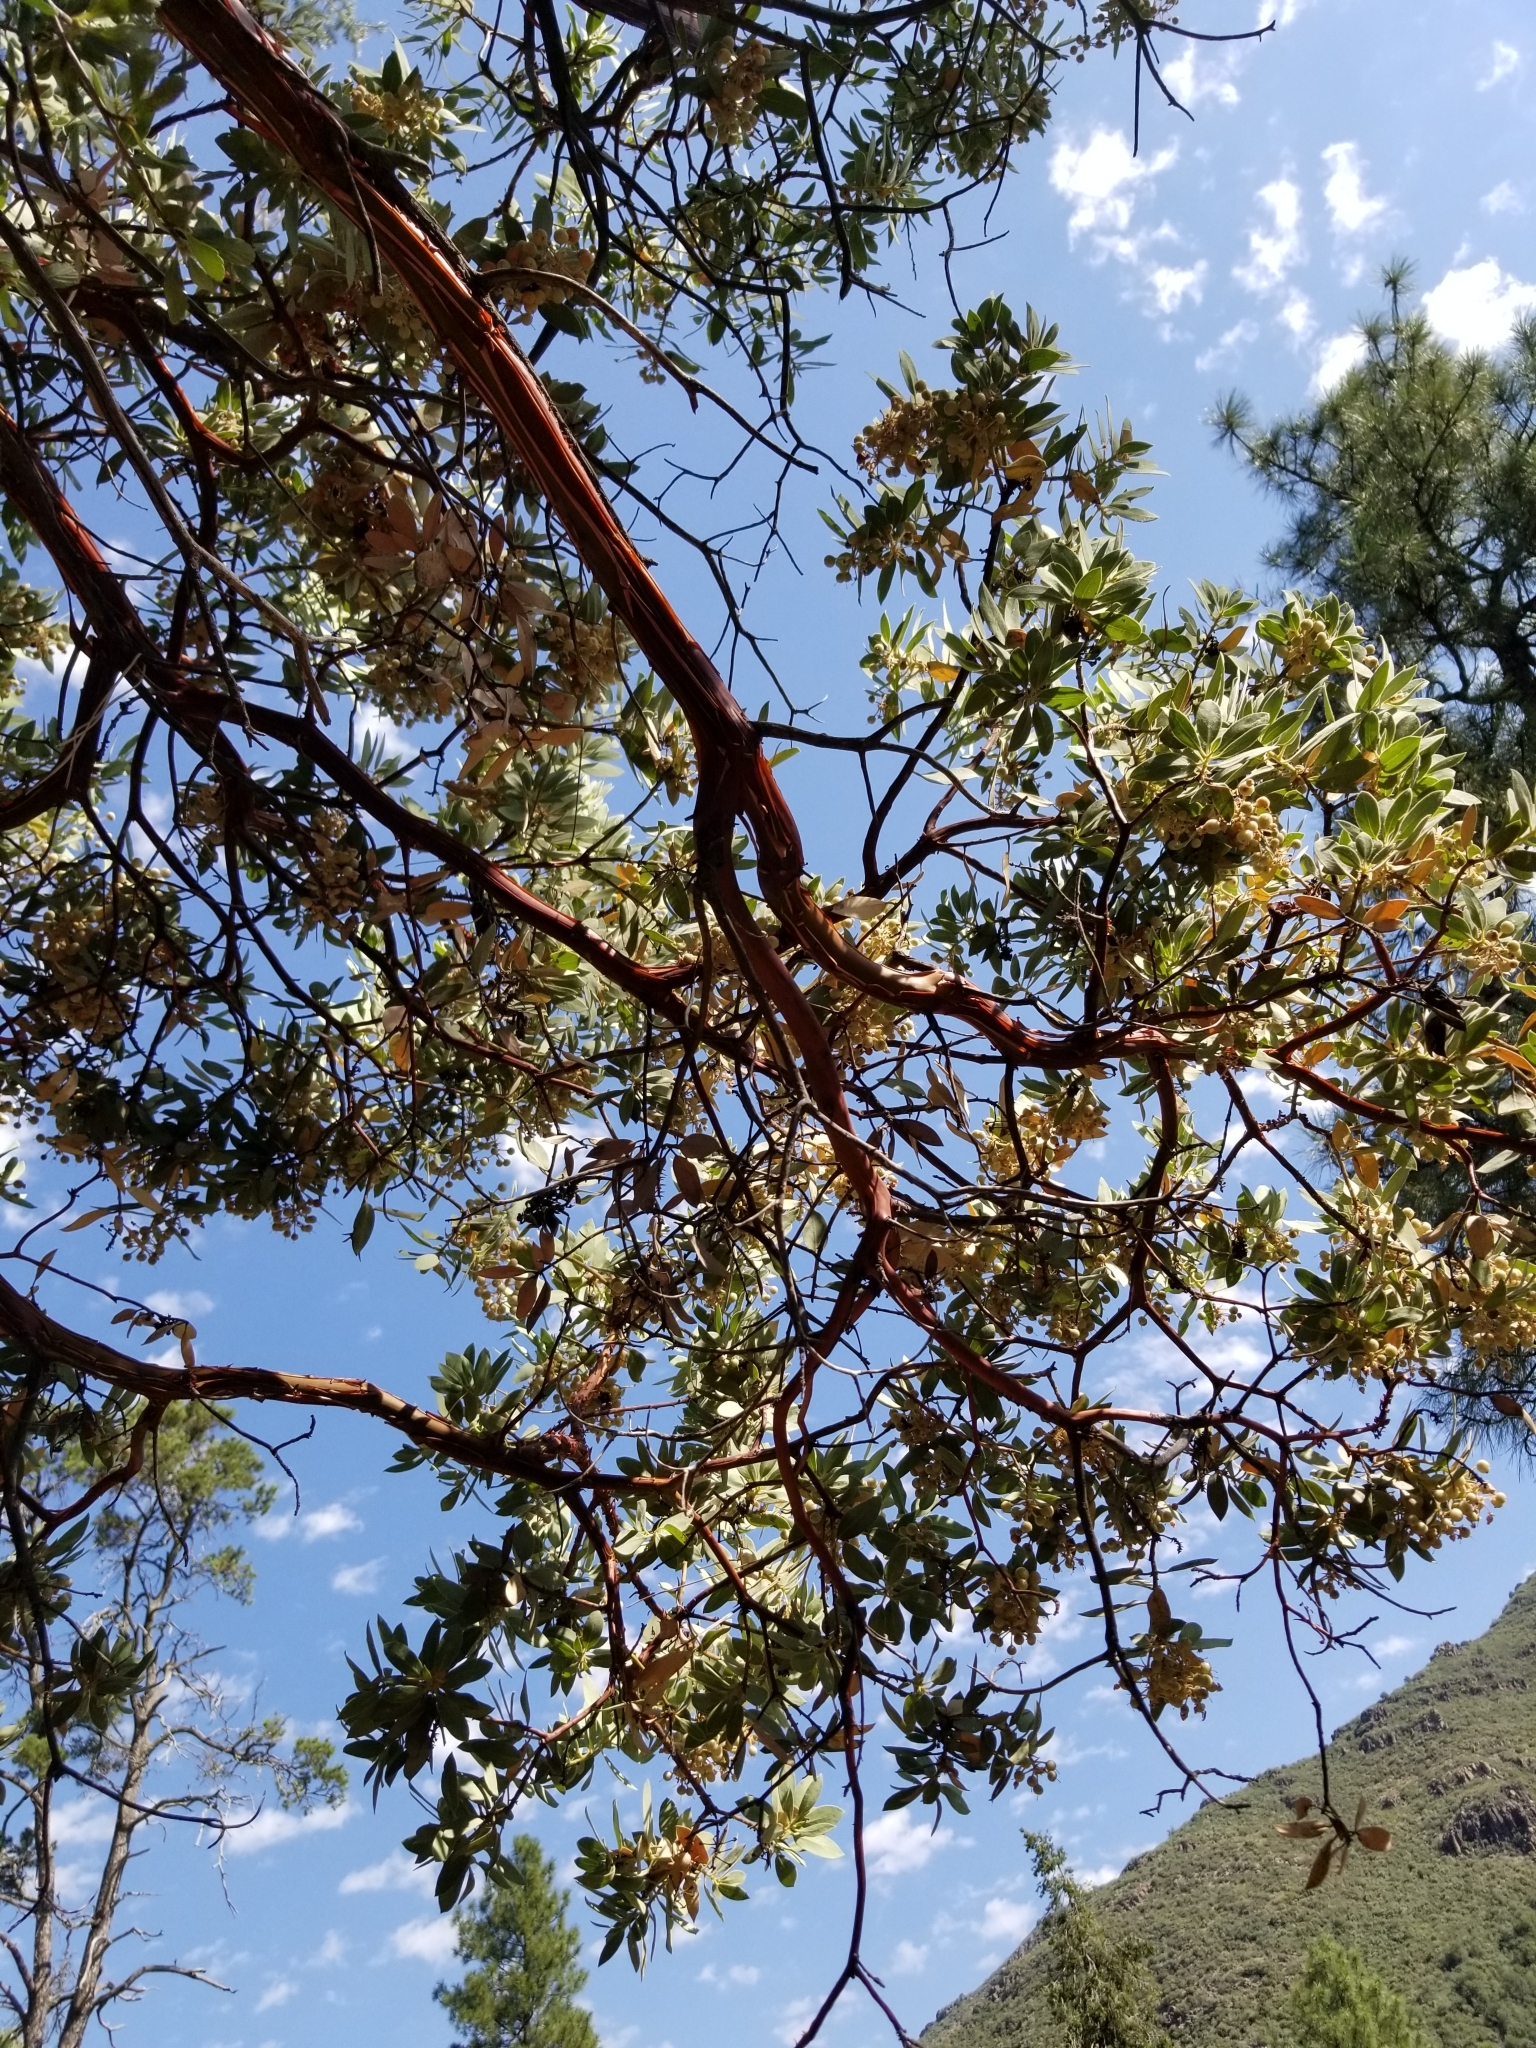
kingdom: Plantae
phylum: Tracheophyta
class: Magnoliopsida
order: Ericales
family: Ericaceae
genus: Arctostaphylos
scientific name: Arctostaphylos pringlei
